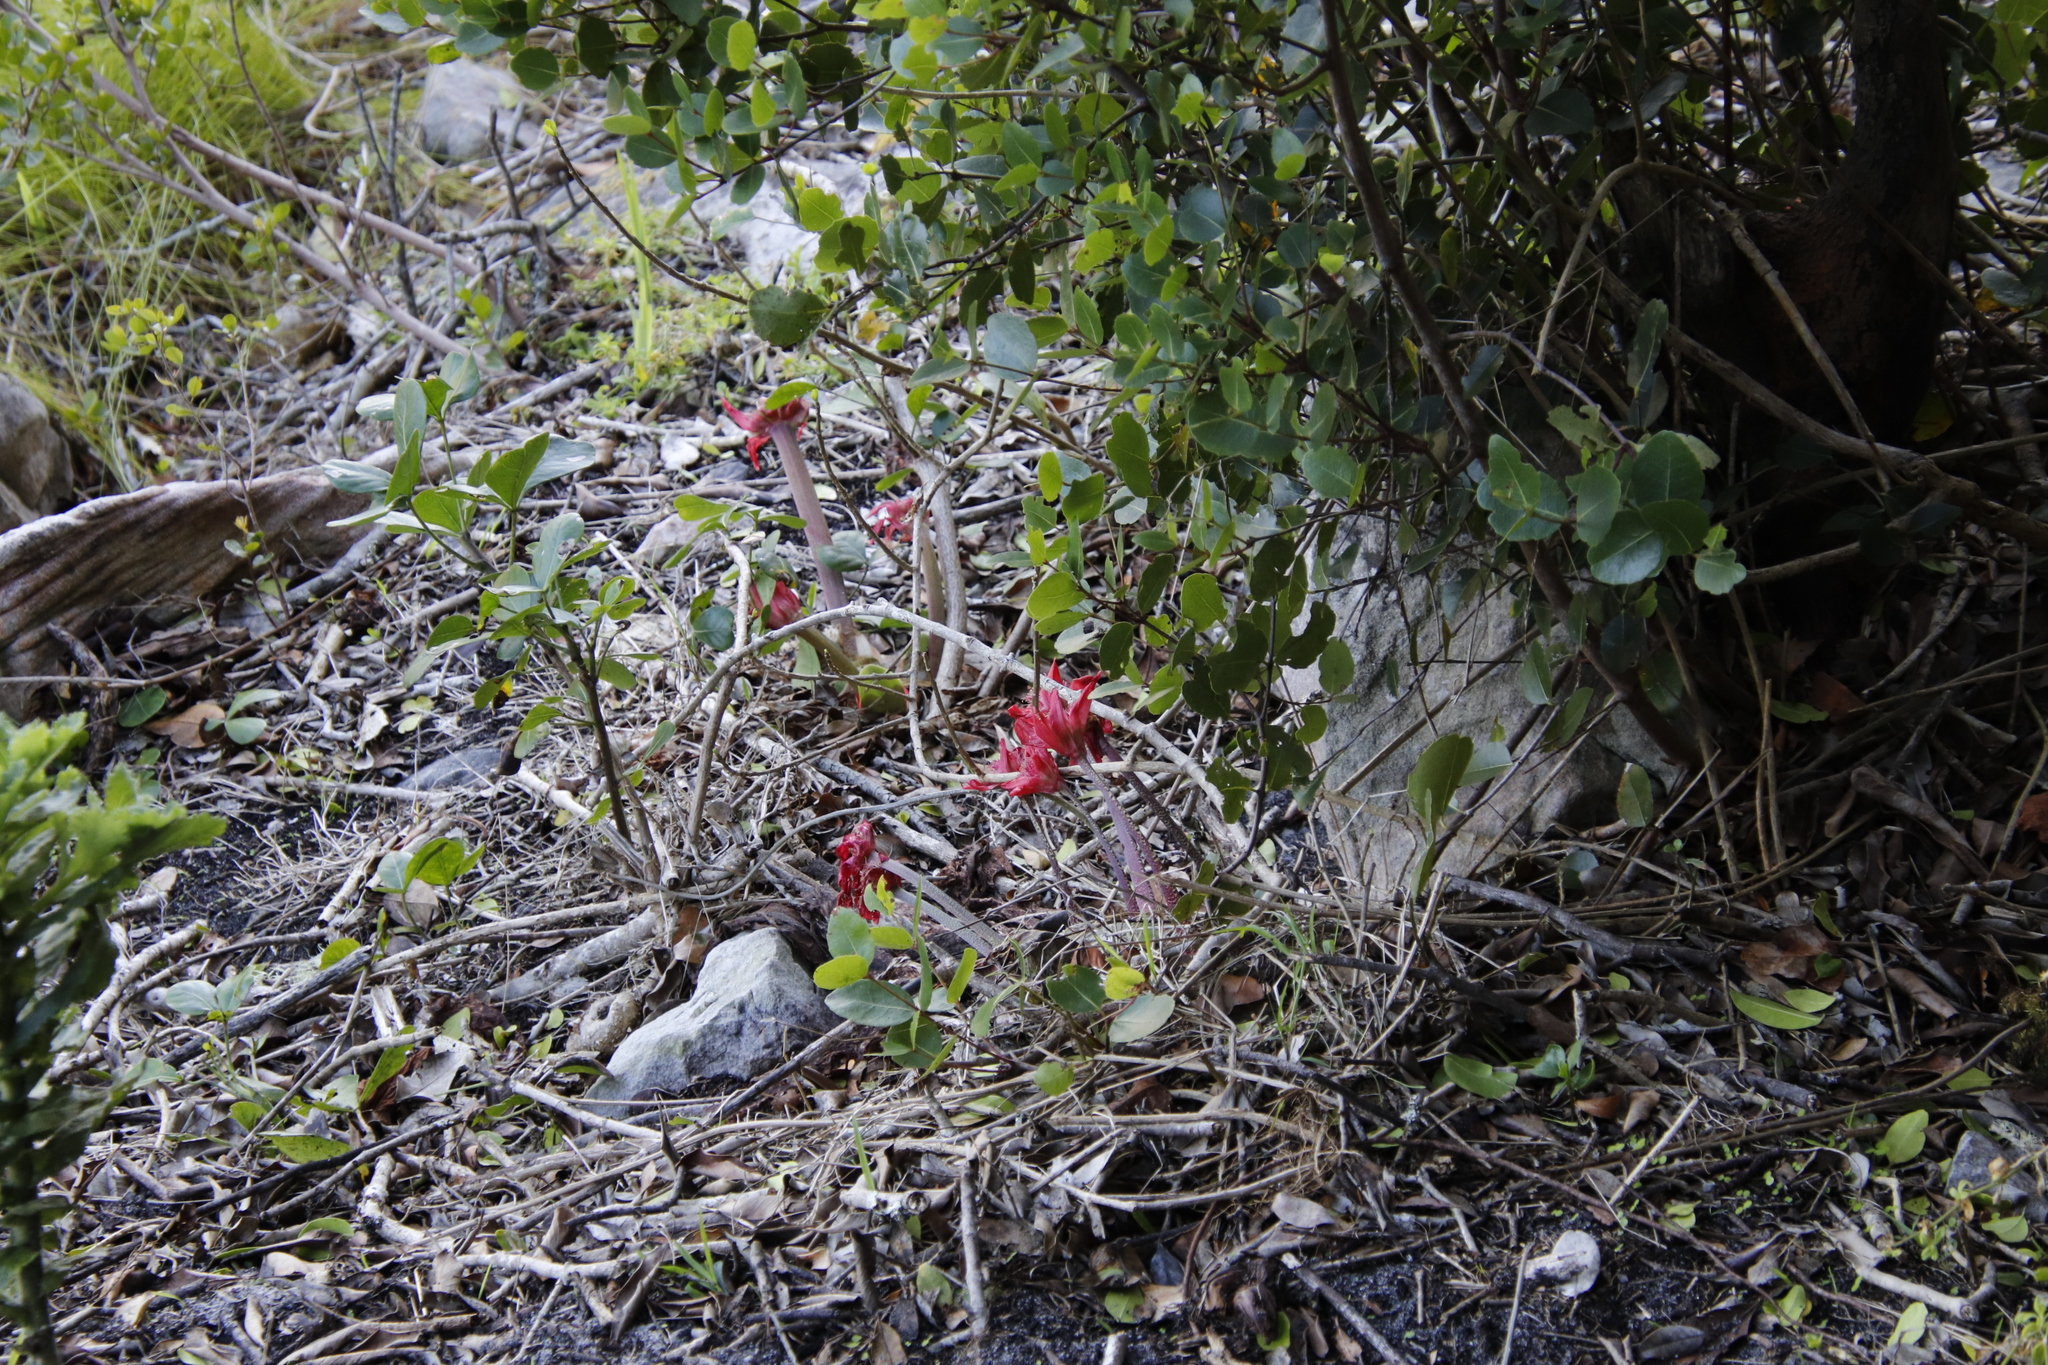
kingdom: Plantae
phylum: Tracheophyta
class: Liliopsida
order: Asparagales
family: Amaryllidaceae
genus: Haemanthus
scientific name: Haemanthus coccineus
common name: Cape-tulip
